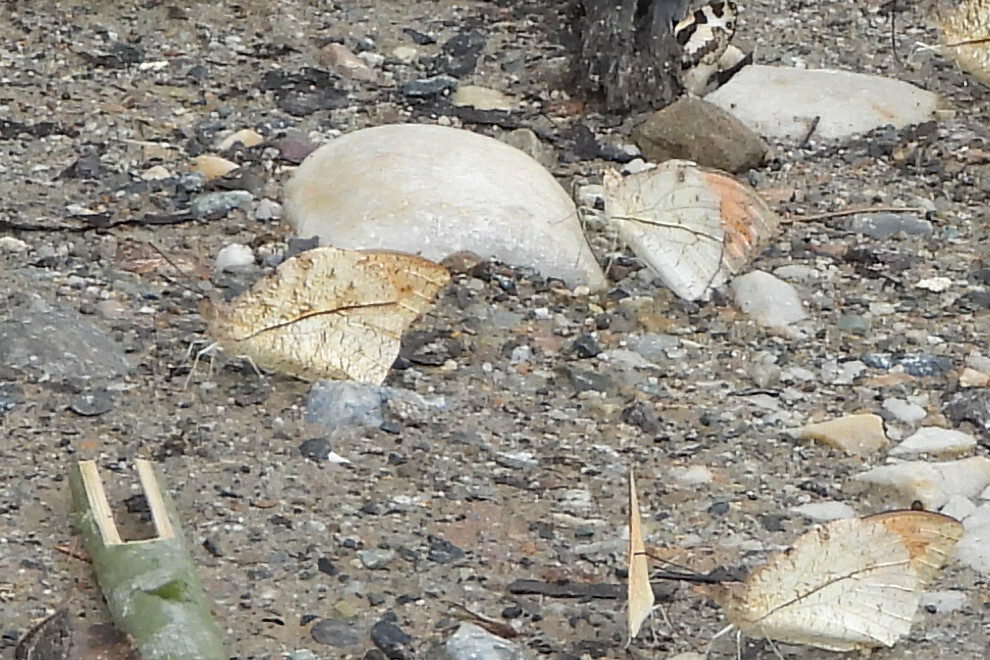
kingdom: Animalia
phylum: Arthropoda
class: Insecta
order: Lepidoptera
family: Pieridae
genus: Hebomoia
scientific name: Hebomoia glaucippe
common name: Great orange tip
